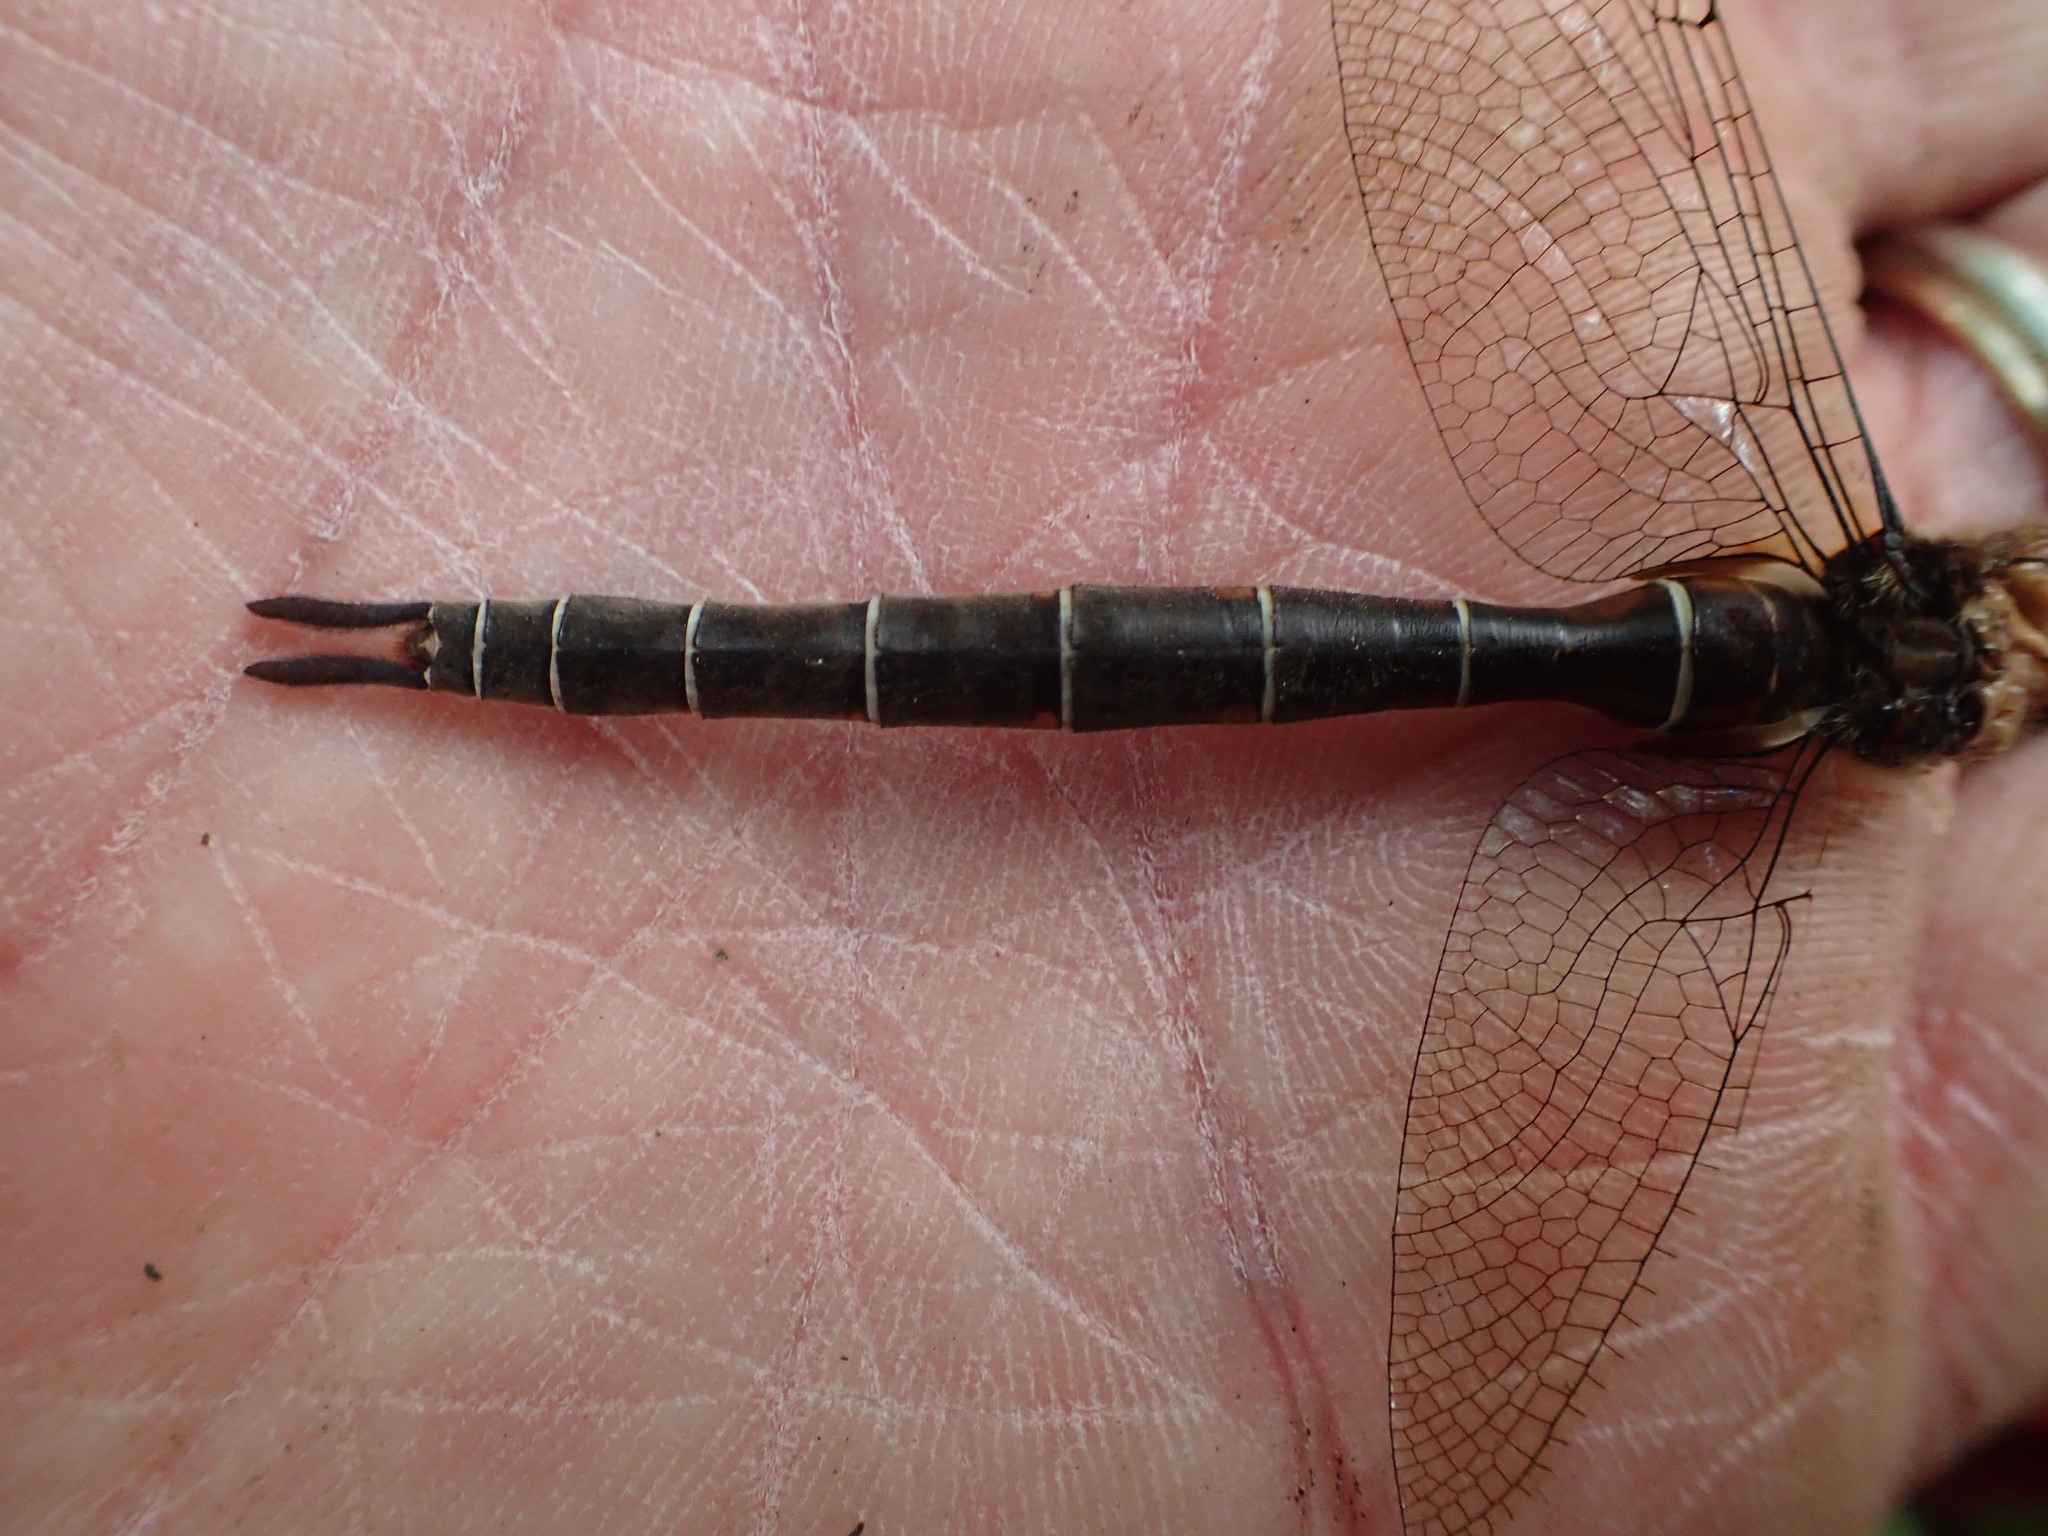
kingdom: Animalia
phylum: Arthropoda
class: Insecta
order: Odonata
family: Corduliidae
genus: Somatochlora
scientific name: Somatochlora cingulata
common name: Lake emerald
